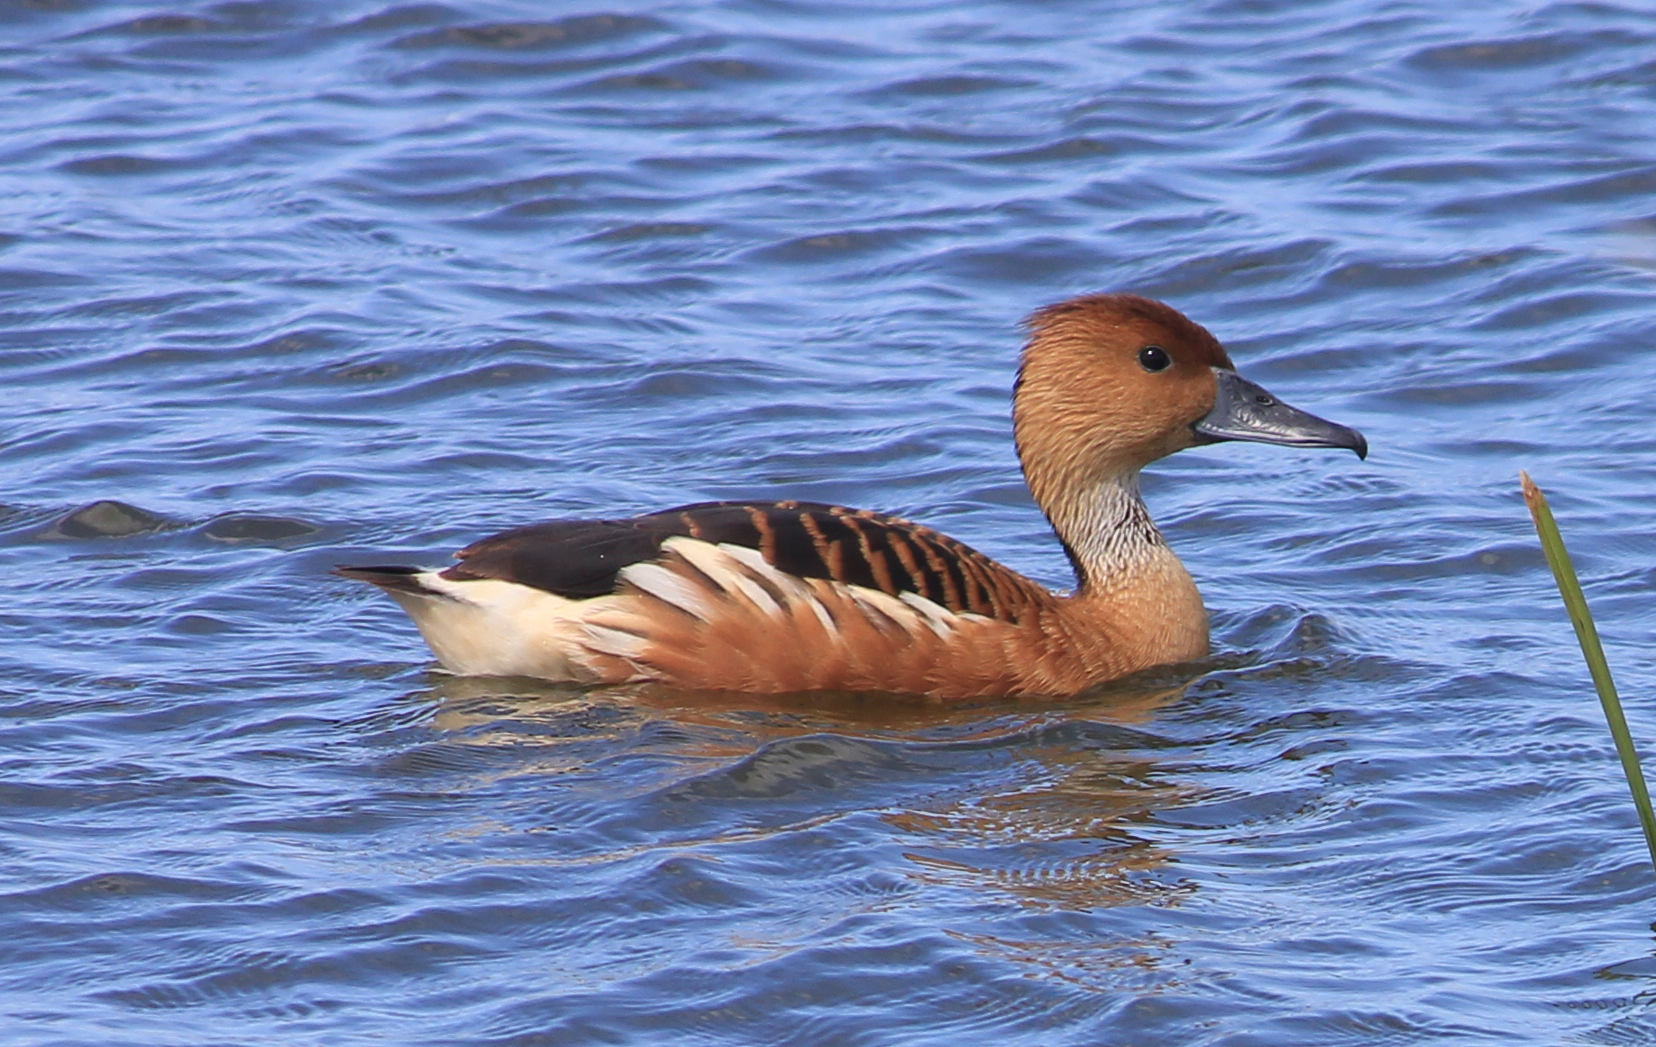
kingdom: Animalia
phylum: Chordata
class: Aves
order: Anseriformes
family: Anatidae
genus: Dendrocygna
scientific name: Dendrocygna bicolor
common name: Fulvous whistling duck
